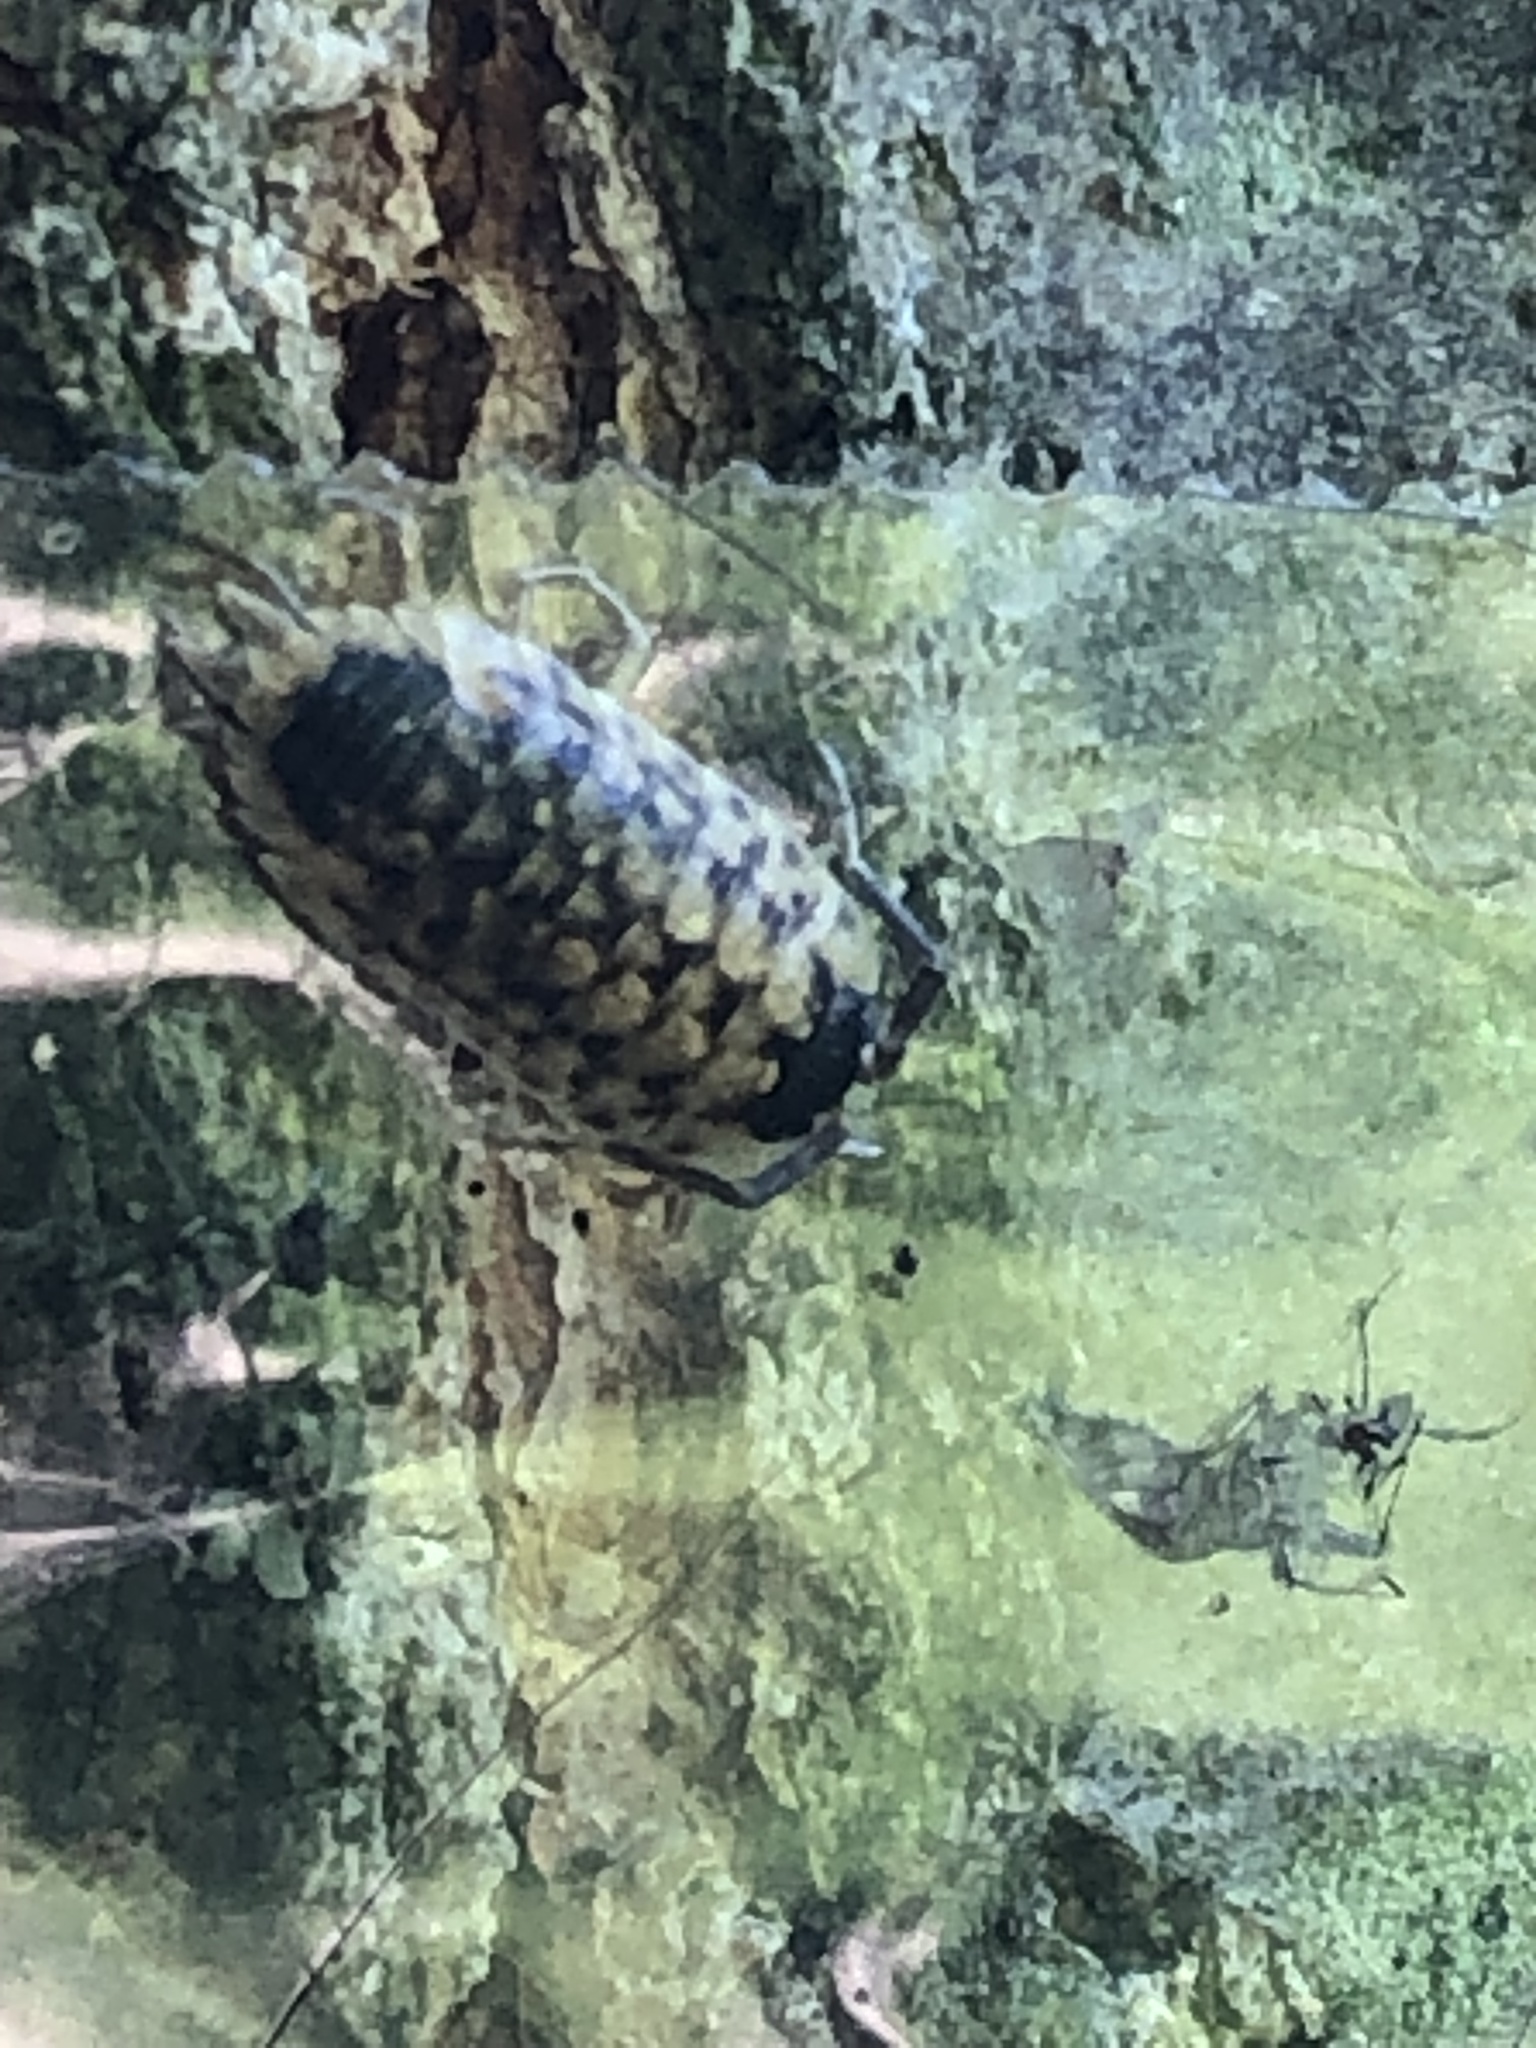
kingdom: Animalia
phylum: Arthropoda
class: Malacostraca
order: Isopoda
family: Porcellionidae
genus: Porcellio
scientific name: Porcellio spinicornis
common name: Painted woodlouse
